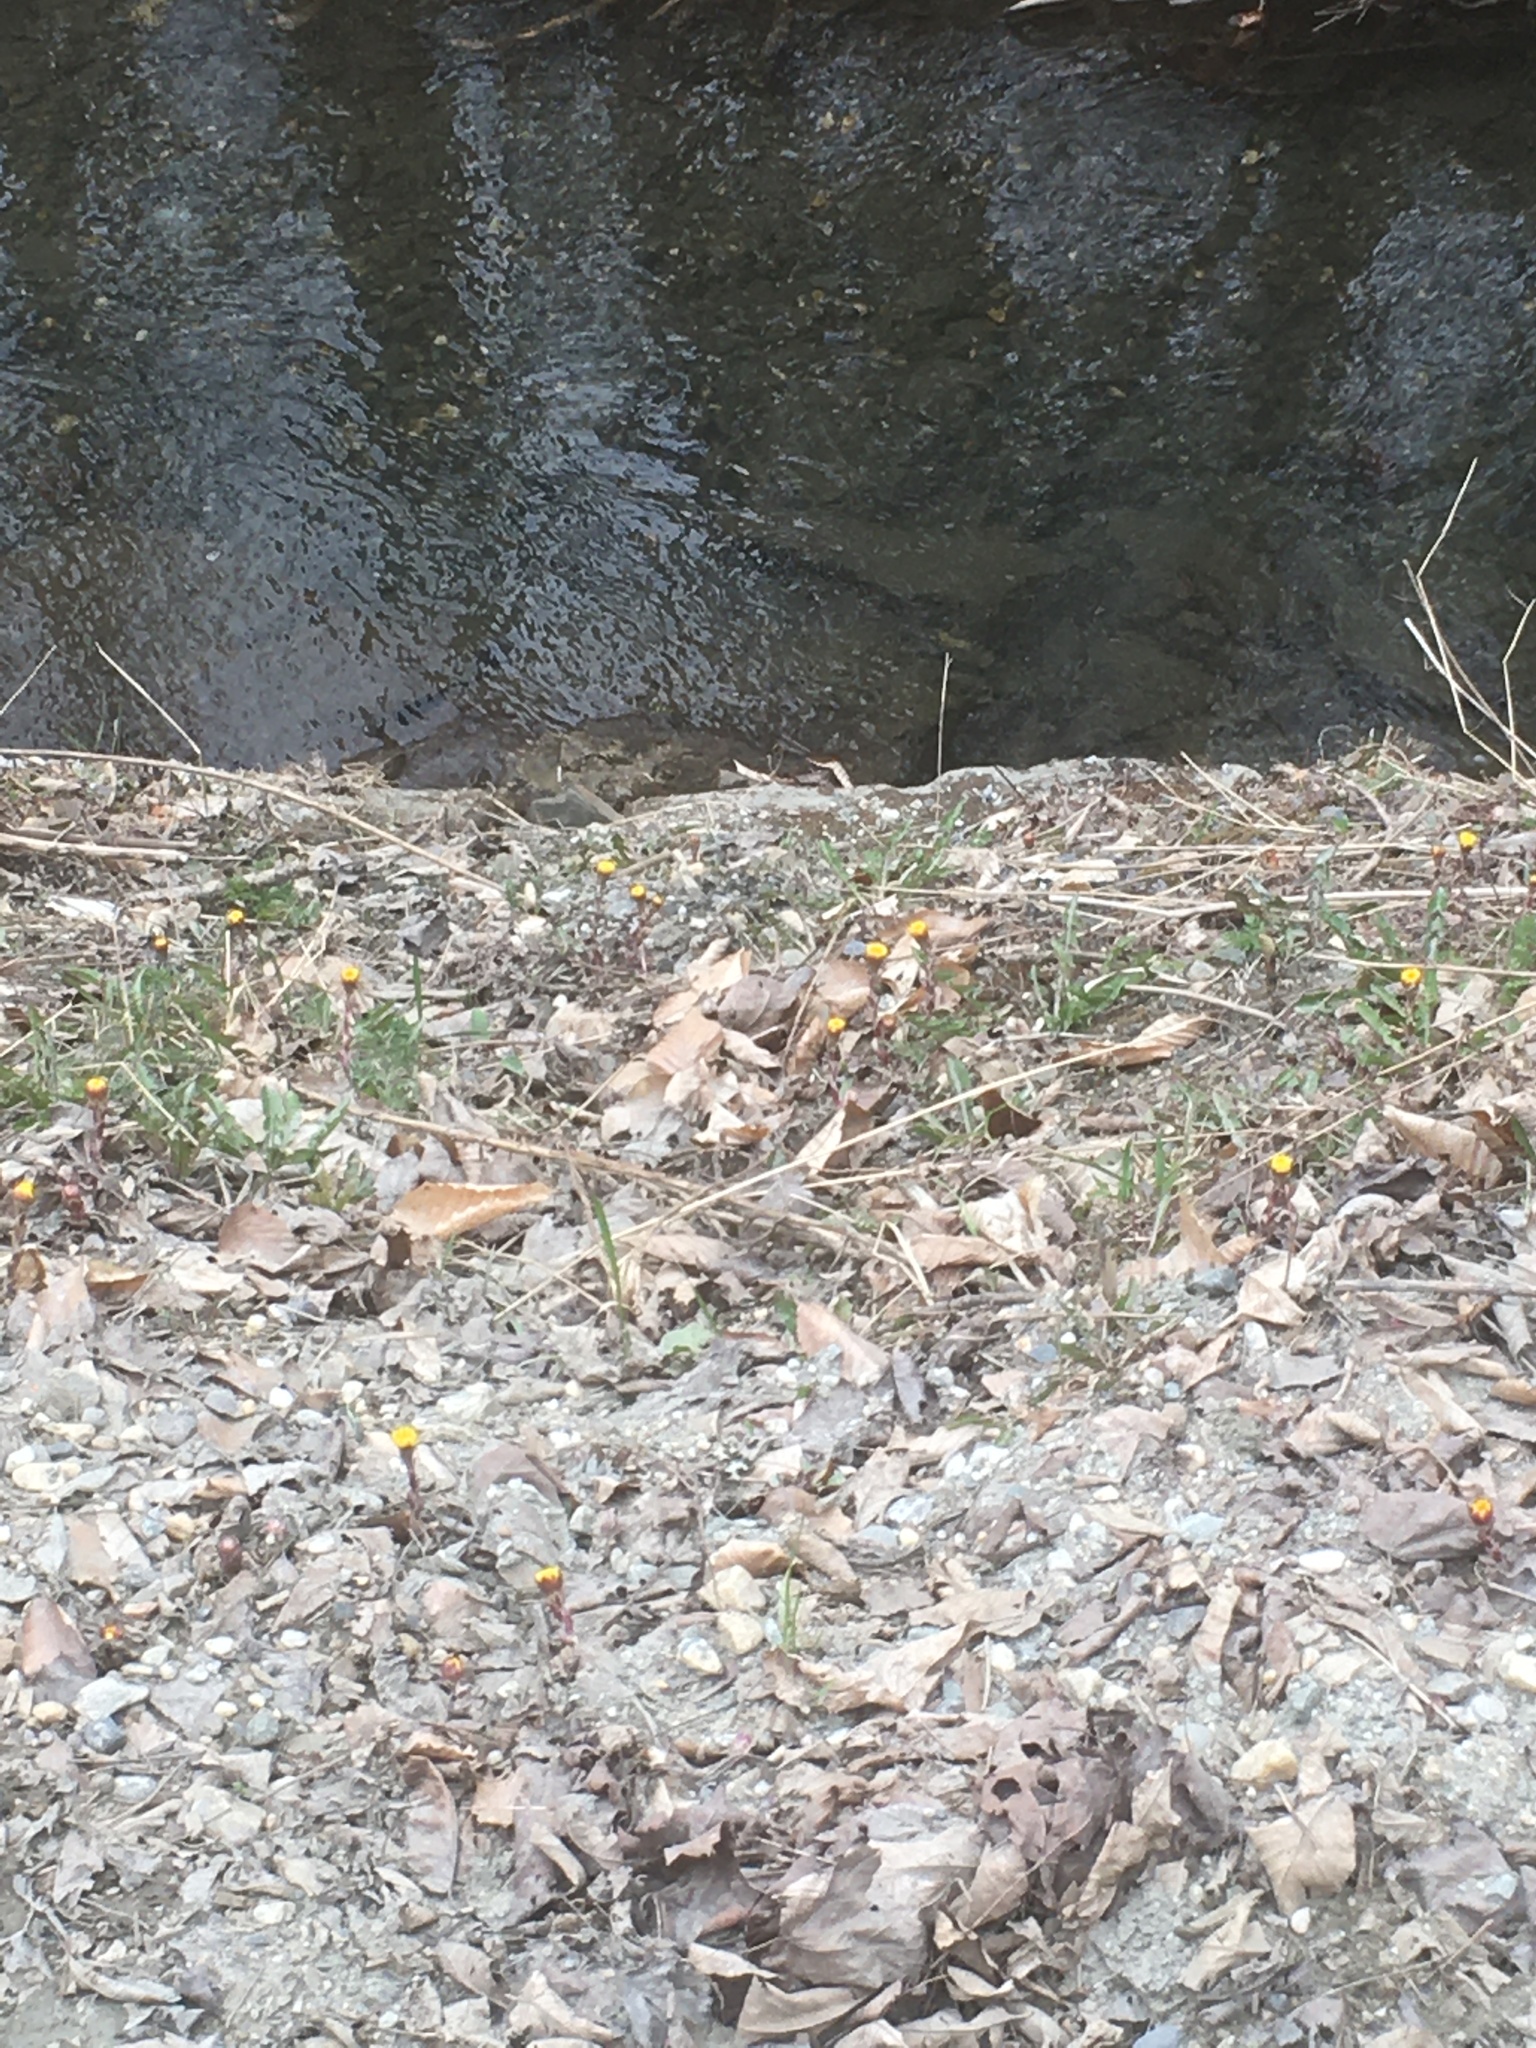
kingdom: Plantae
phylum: Tracheophyta
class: Magnoliopsida
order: Asterales
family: Asteraceae
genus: Tussilago
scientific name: Tussilago farfara
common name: Coltsfoot
